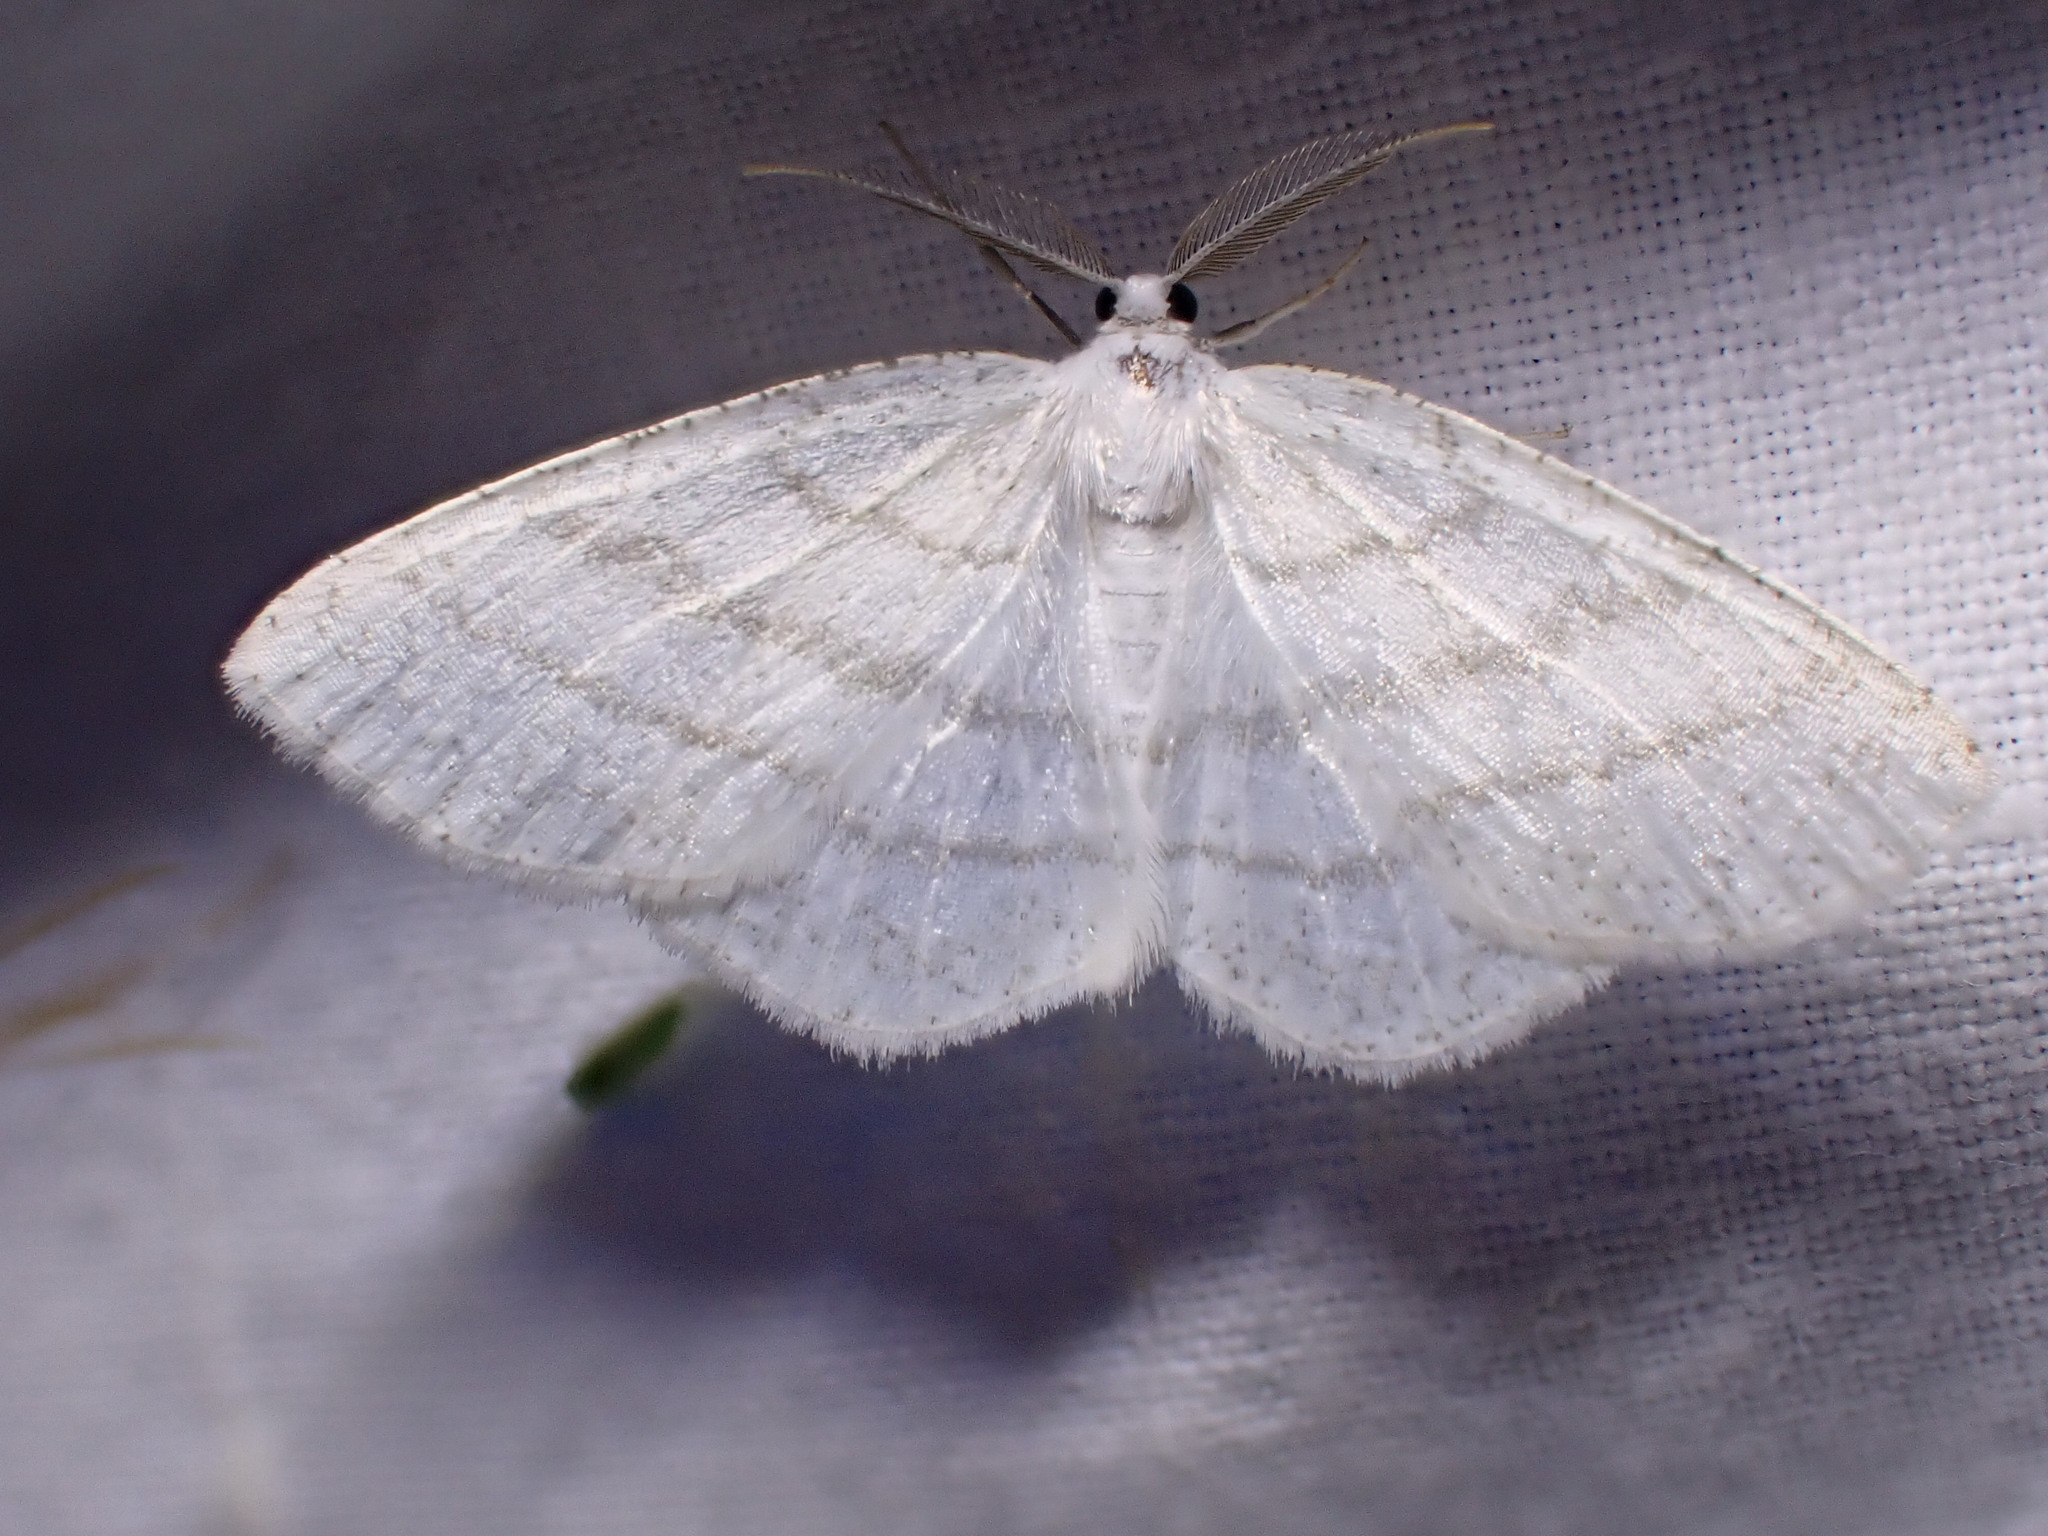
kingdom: Animalia
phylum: Arthropoda
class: Insecta
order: Lepidoptera
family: Geometridae
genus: Cabera
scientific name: Cabera pusaria
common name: Common white wave
